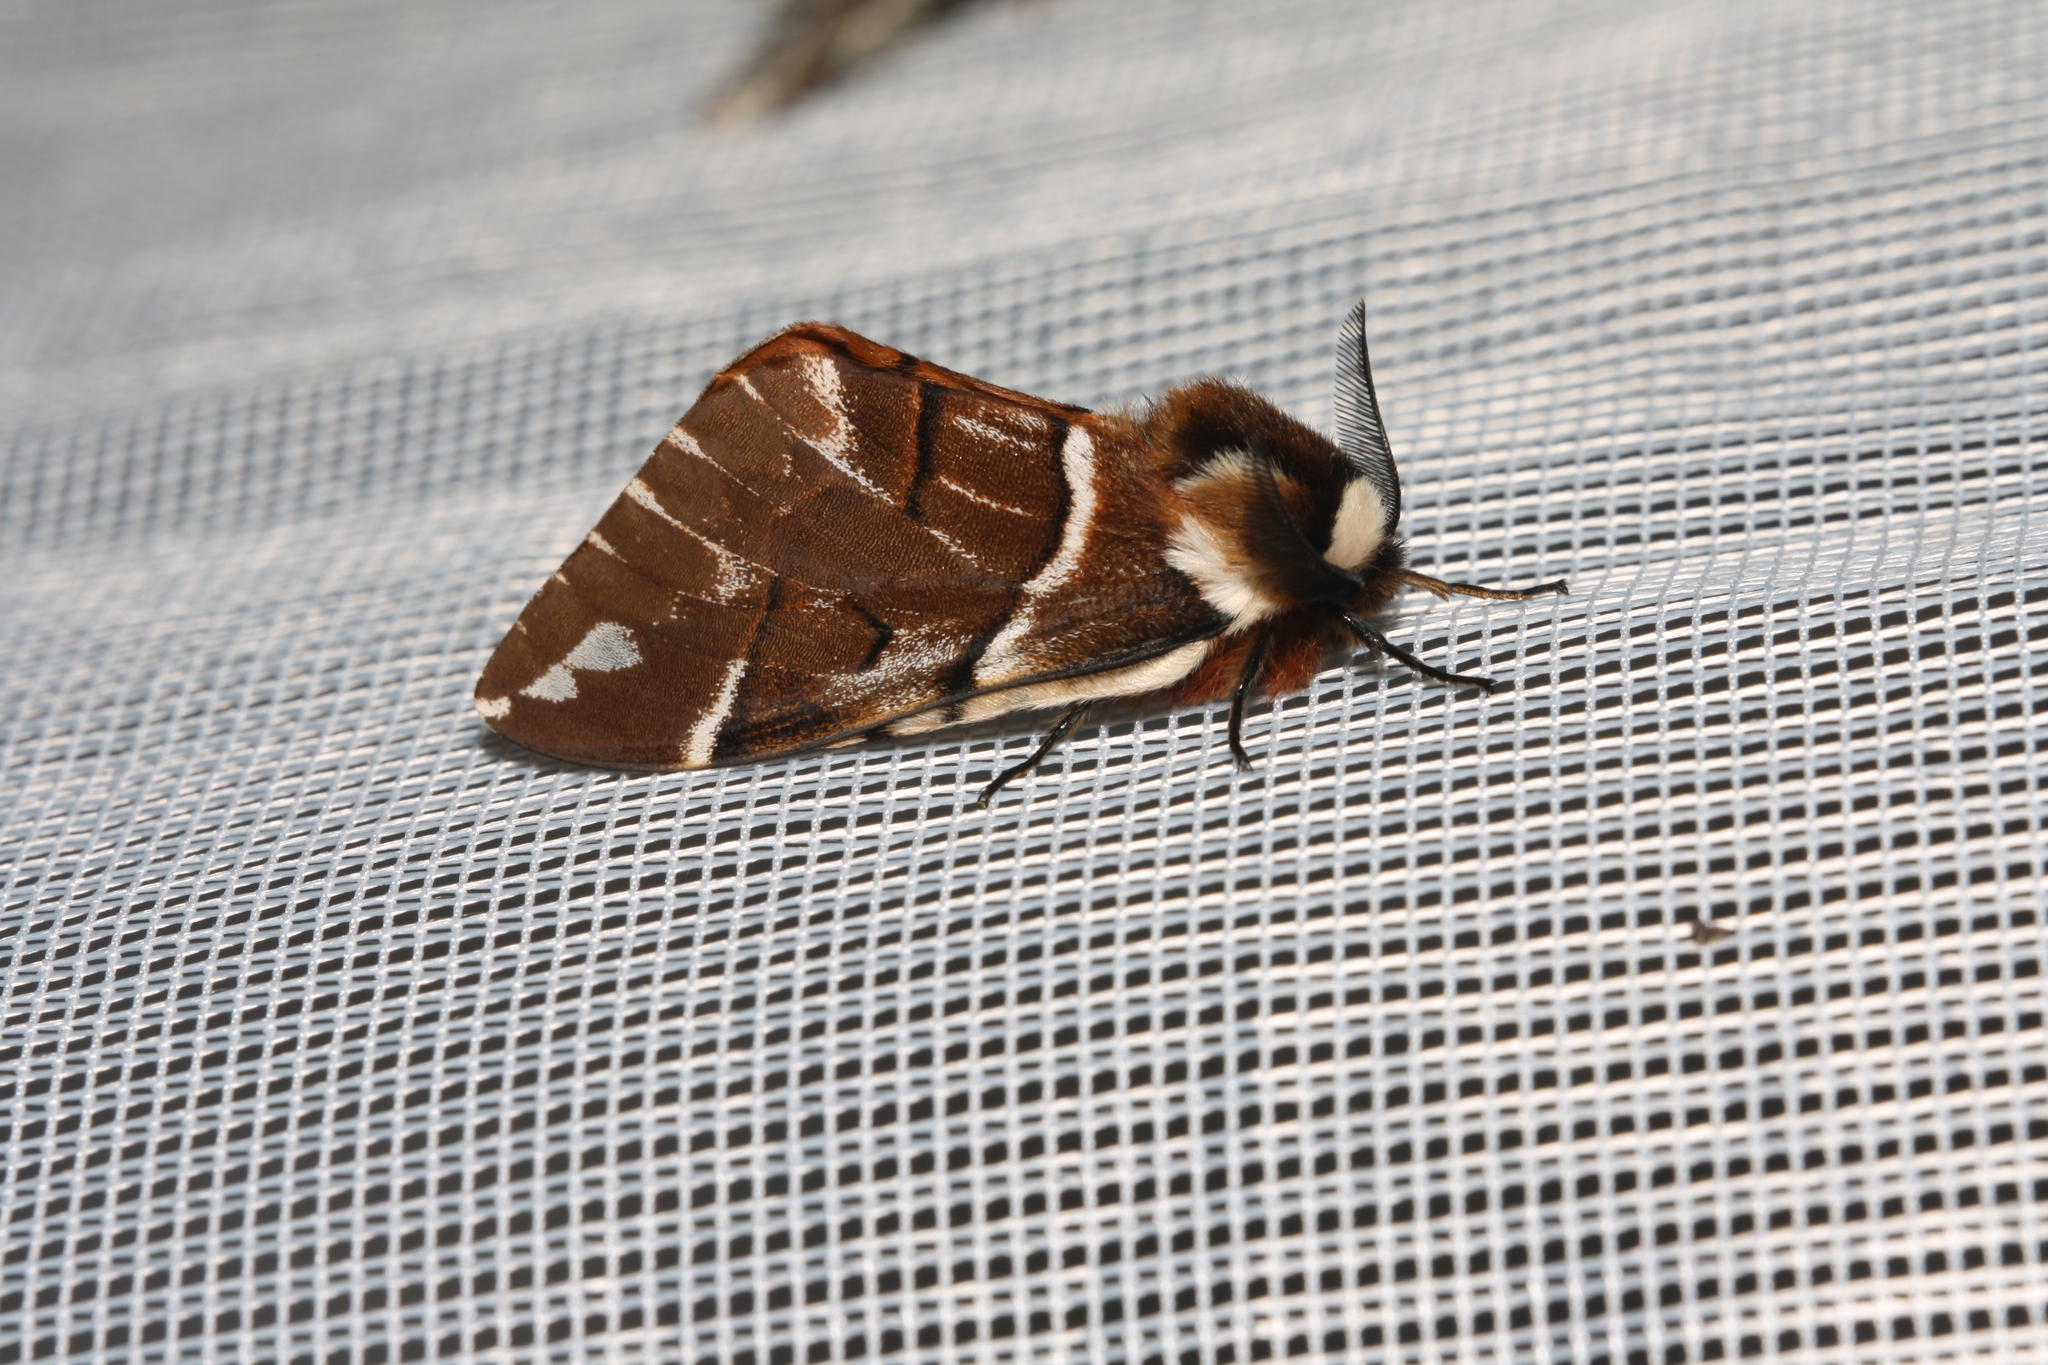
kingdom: Animalia
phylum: Arthropoda
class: Insecta
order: Lepidoptera
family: Endromidae
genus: Endromis
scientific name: Endromis versicolora
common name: Kentish glory
